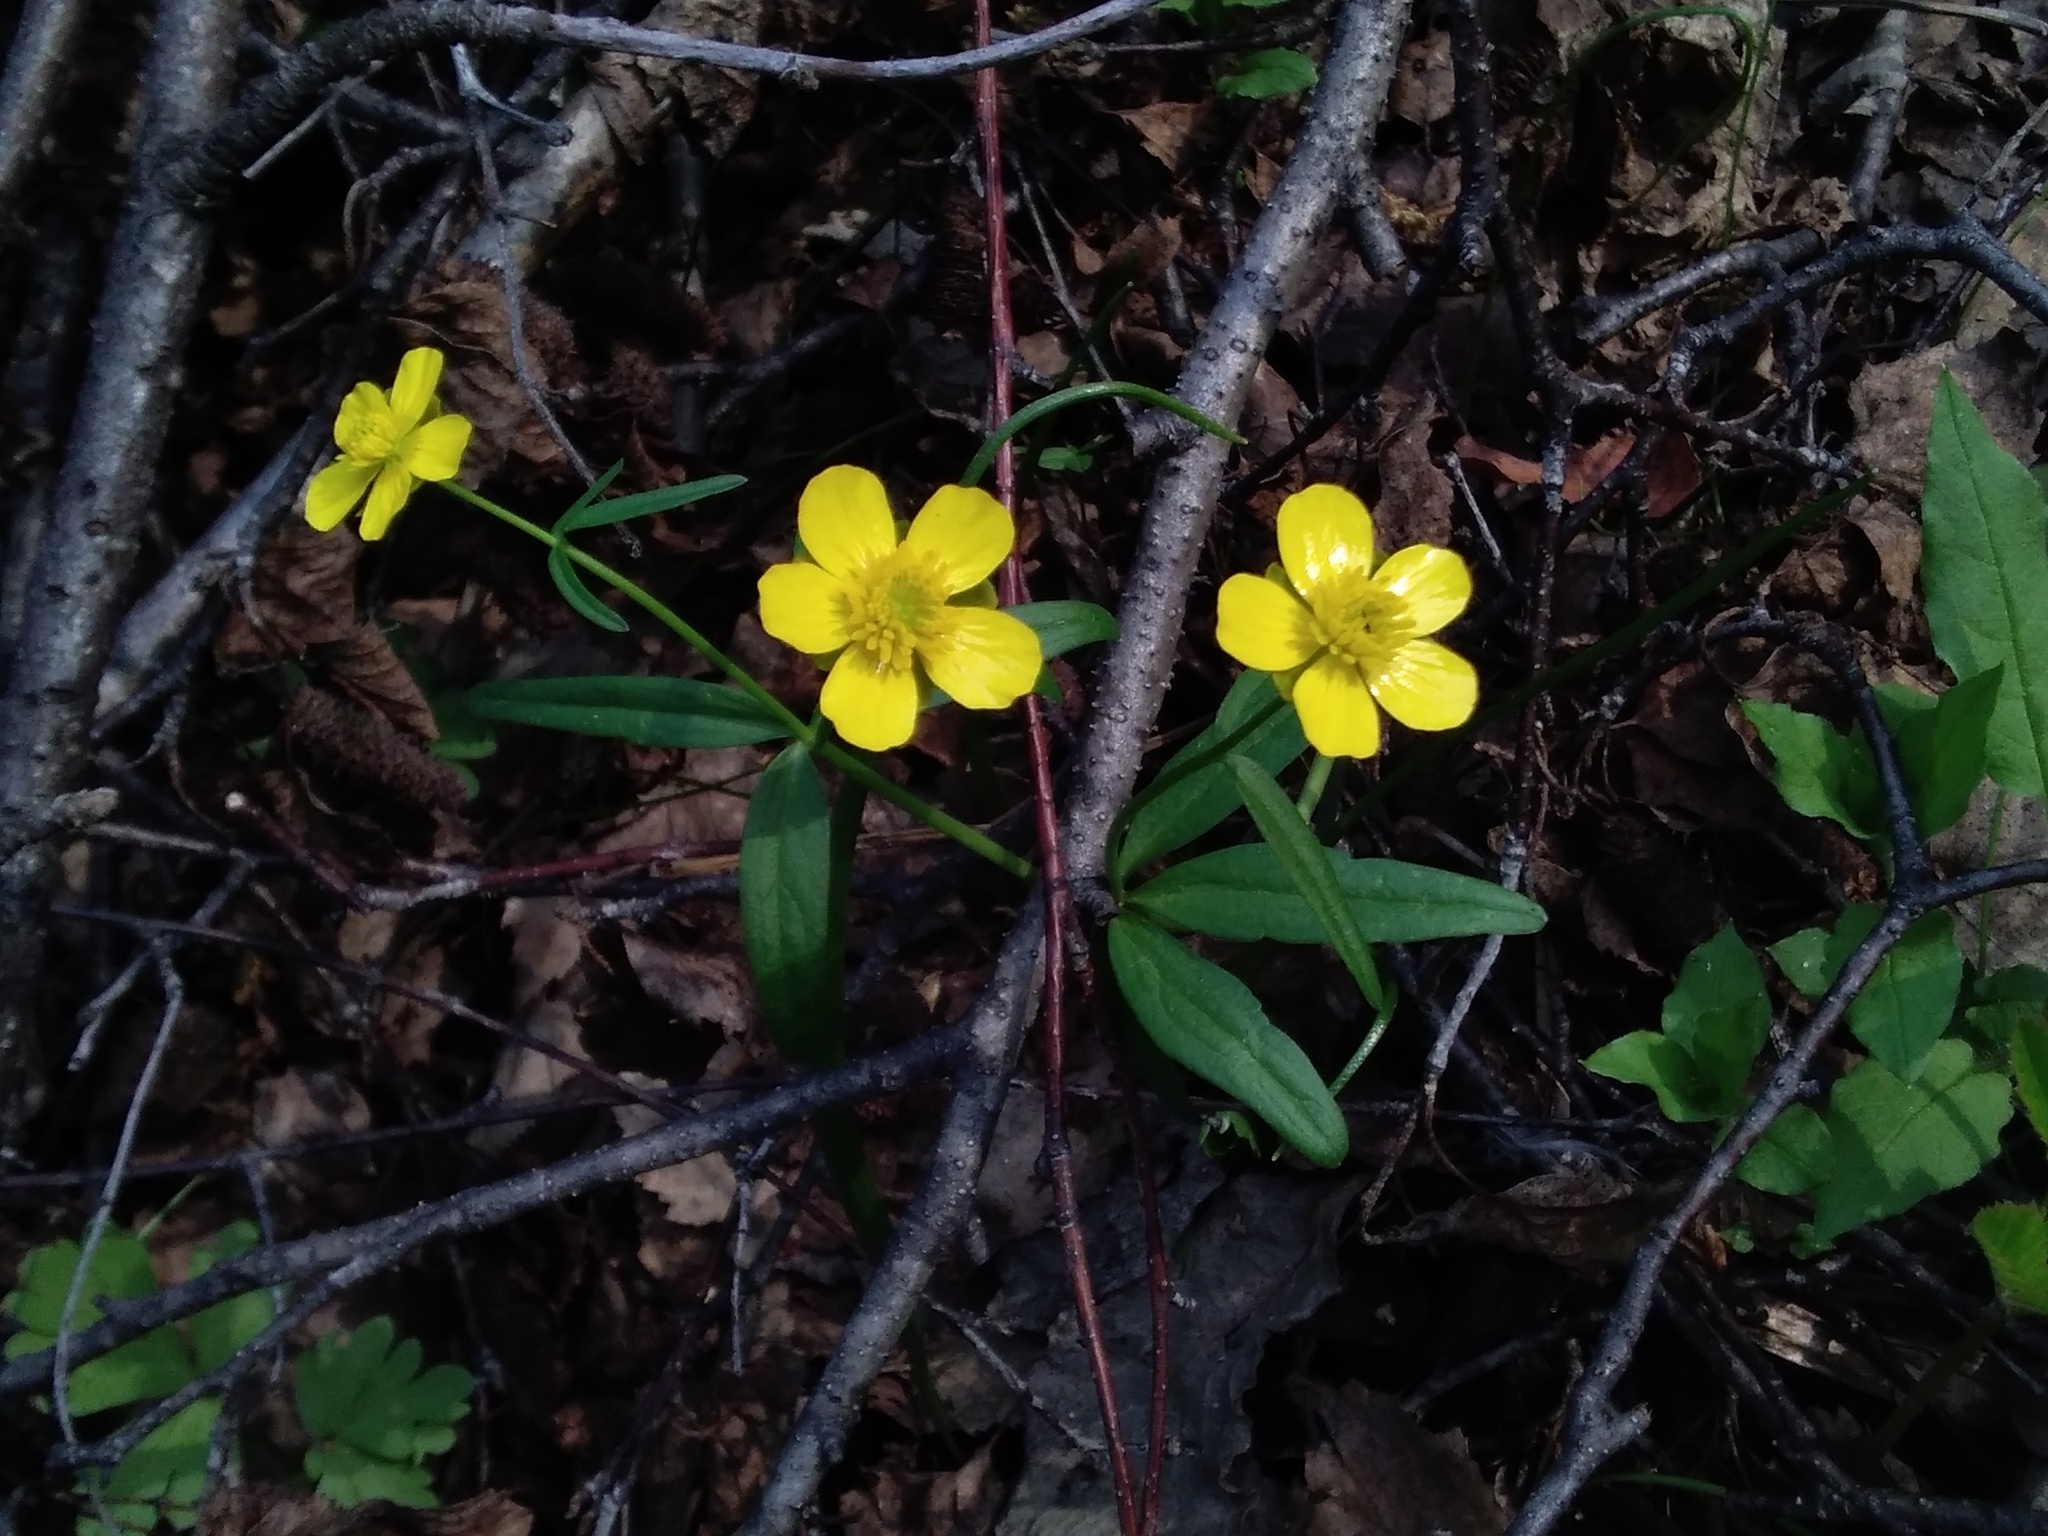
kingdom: Plantae
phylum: Tracheophyta
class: Magnoliopsida
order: Ranunculales
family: Ranunculaceae
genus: Ranunculus
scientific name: Ranunculus monophyllus
